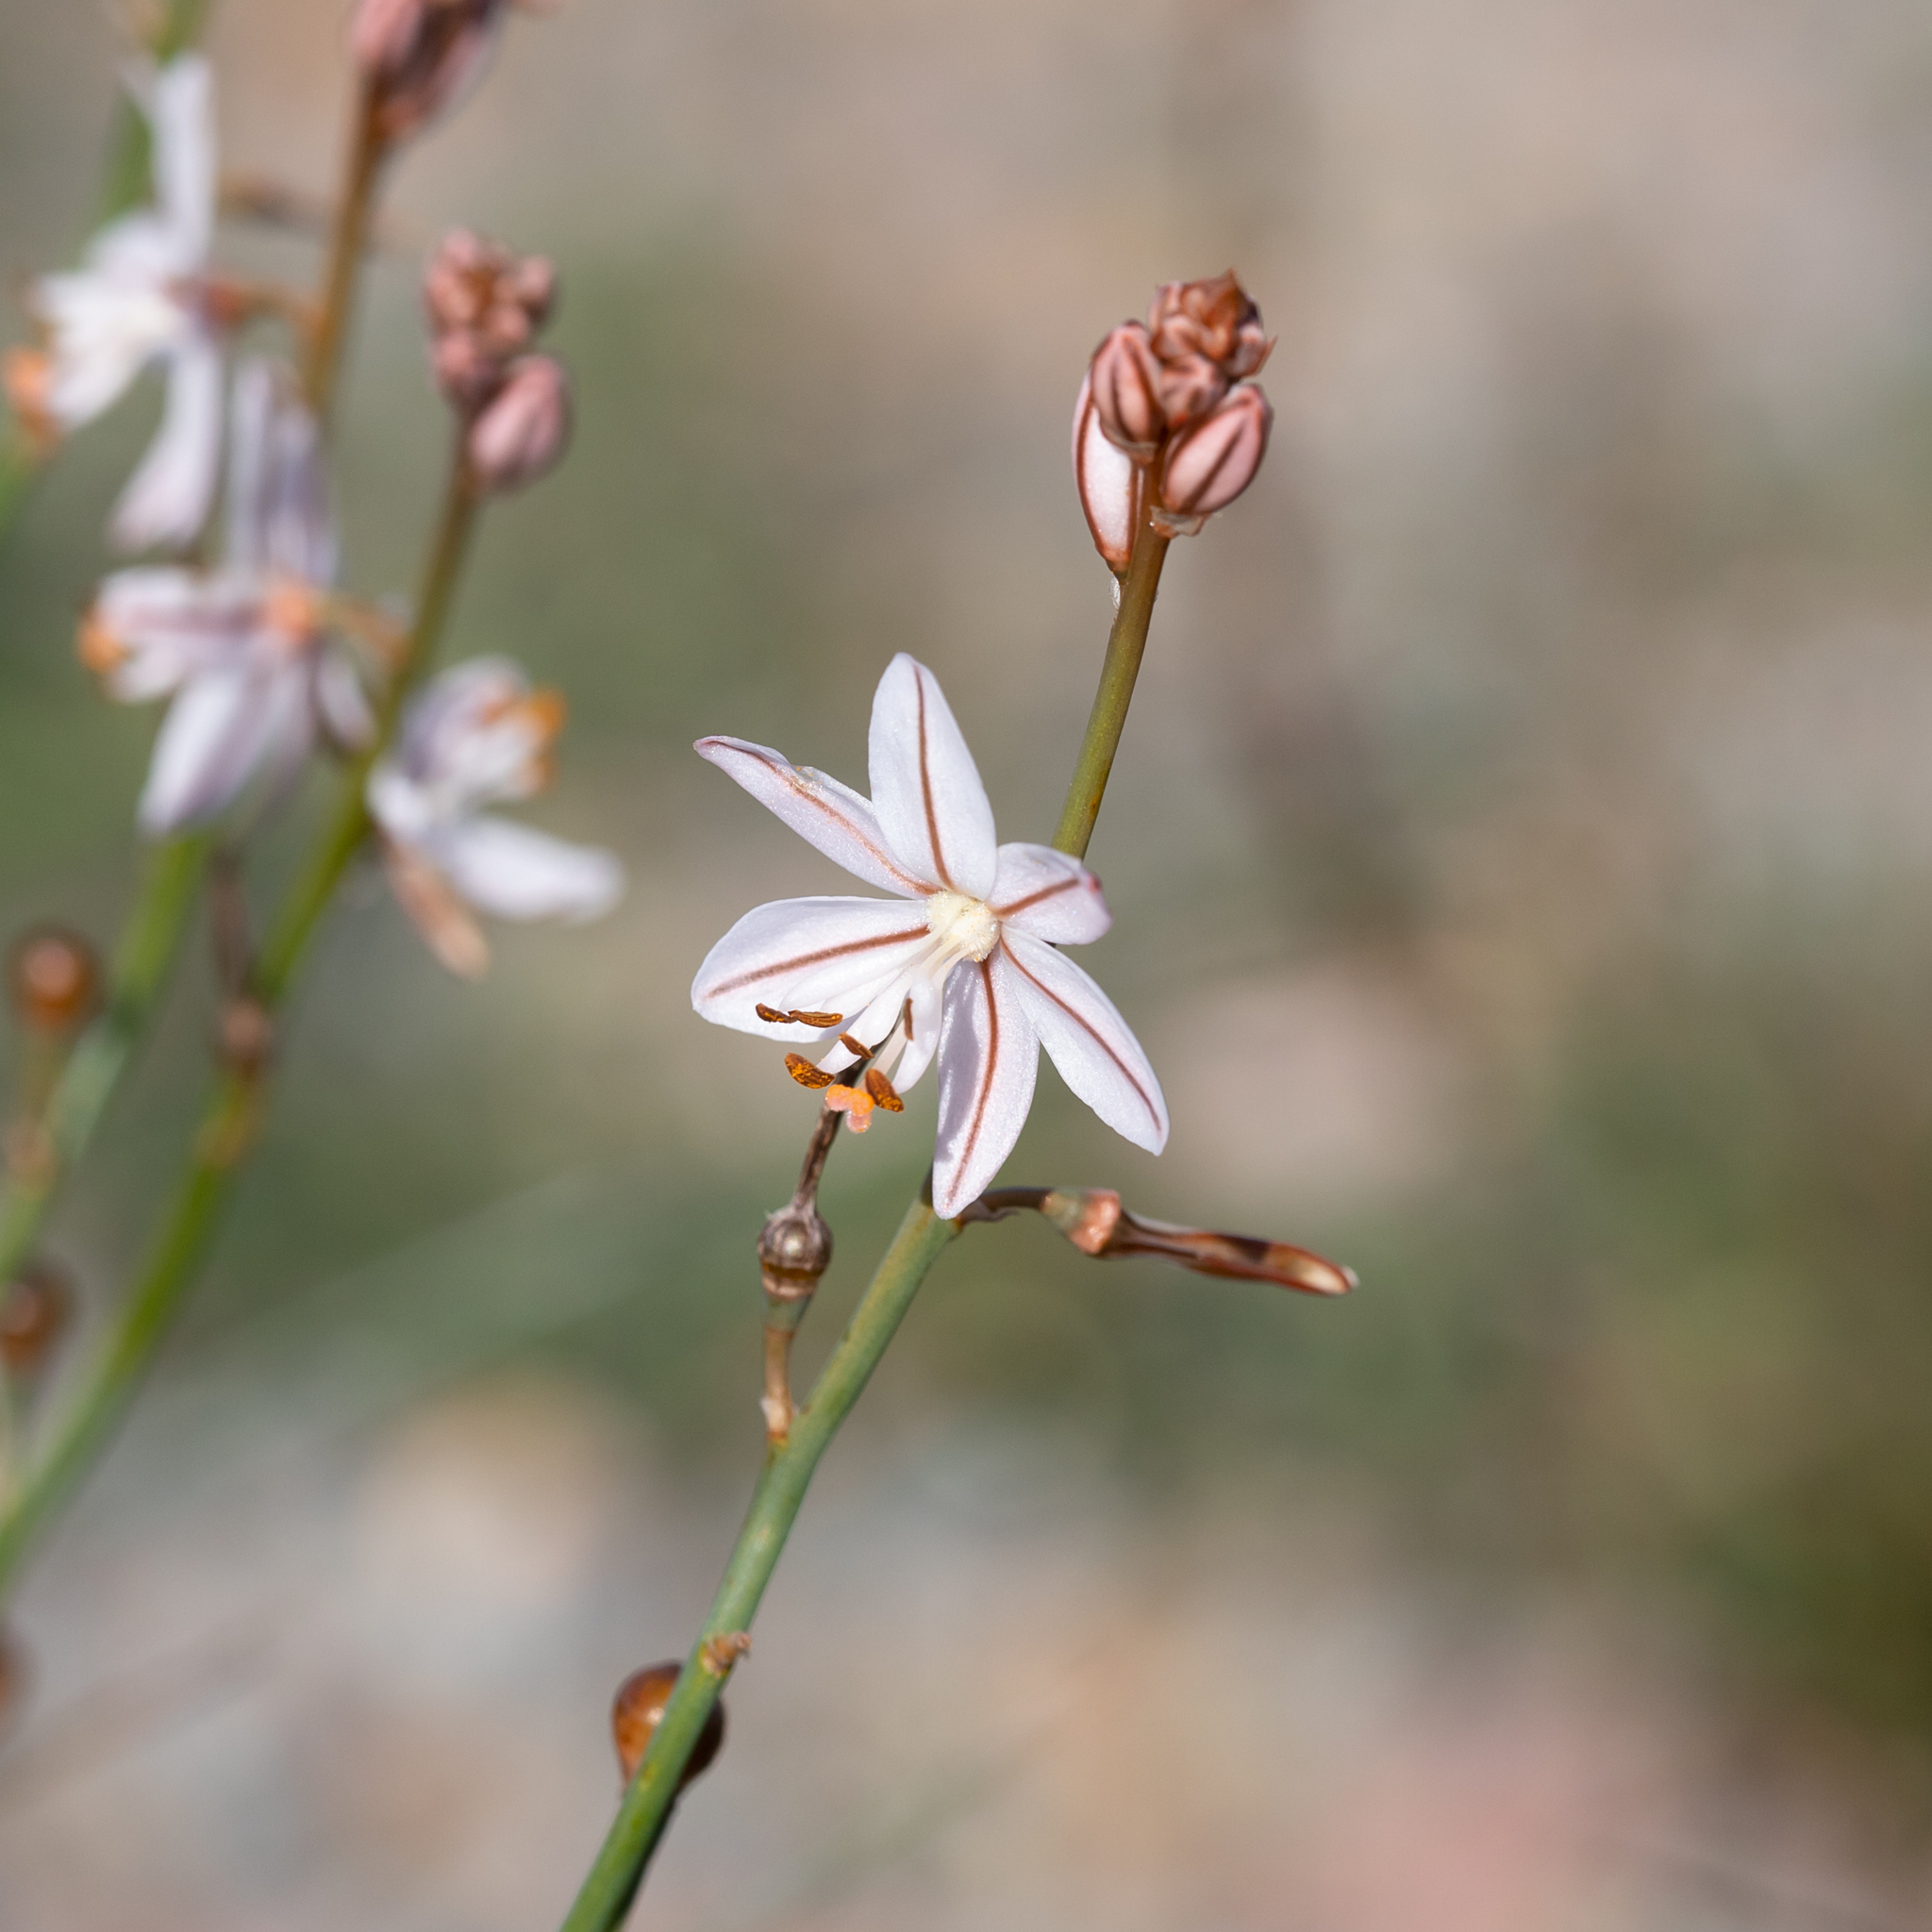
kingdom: Plantae
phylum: Tracheophyta
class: Liliopsida
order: Asparagales
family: Asphodelaceae
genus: Asphodelus
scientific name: Asphodelus fistulosus
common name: Onionweed
